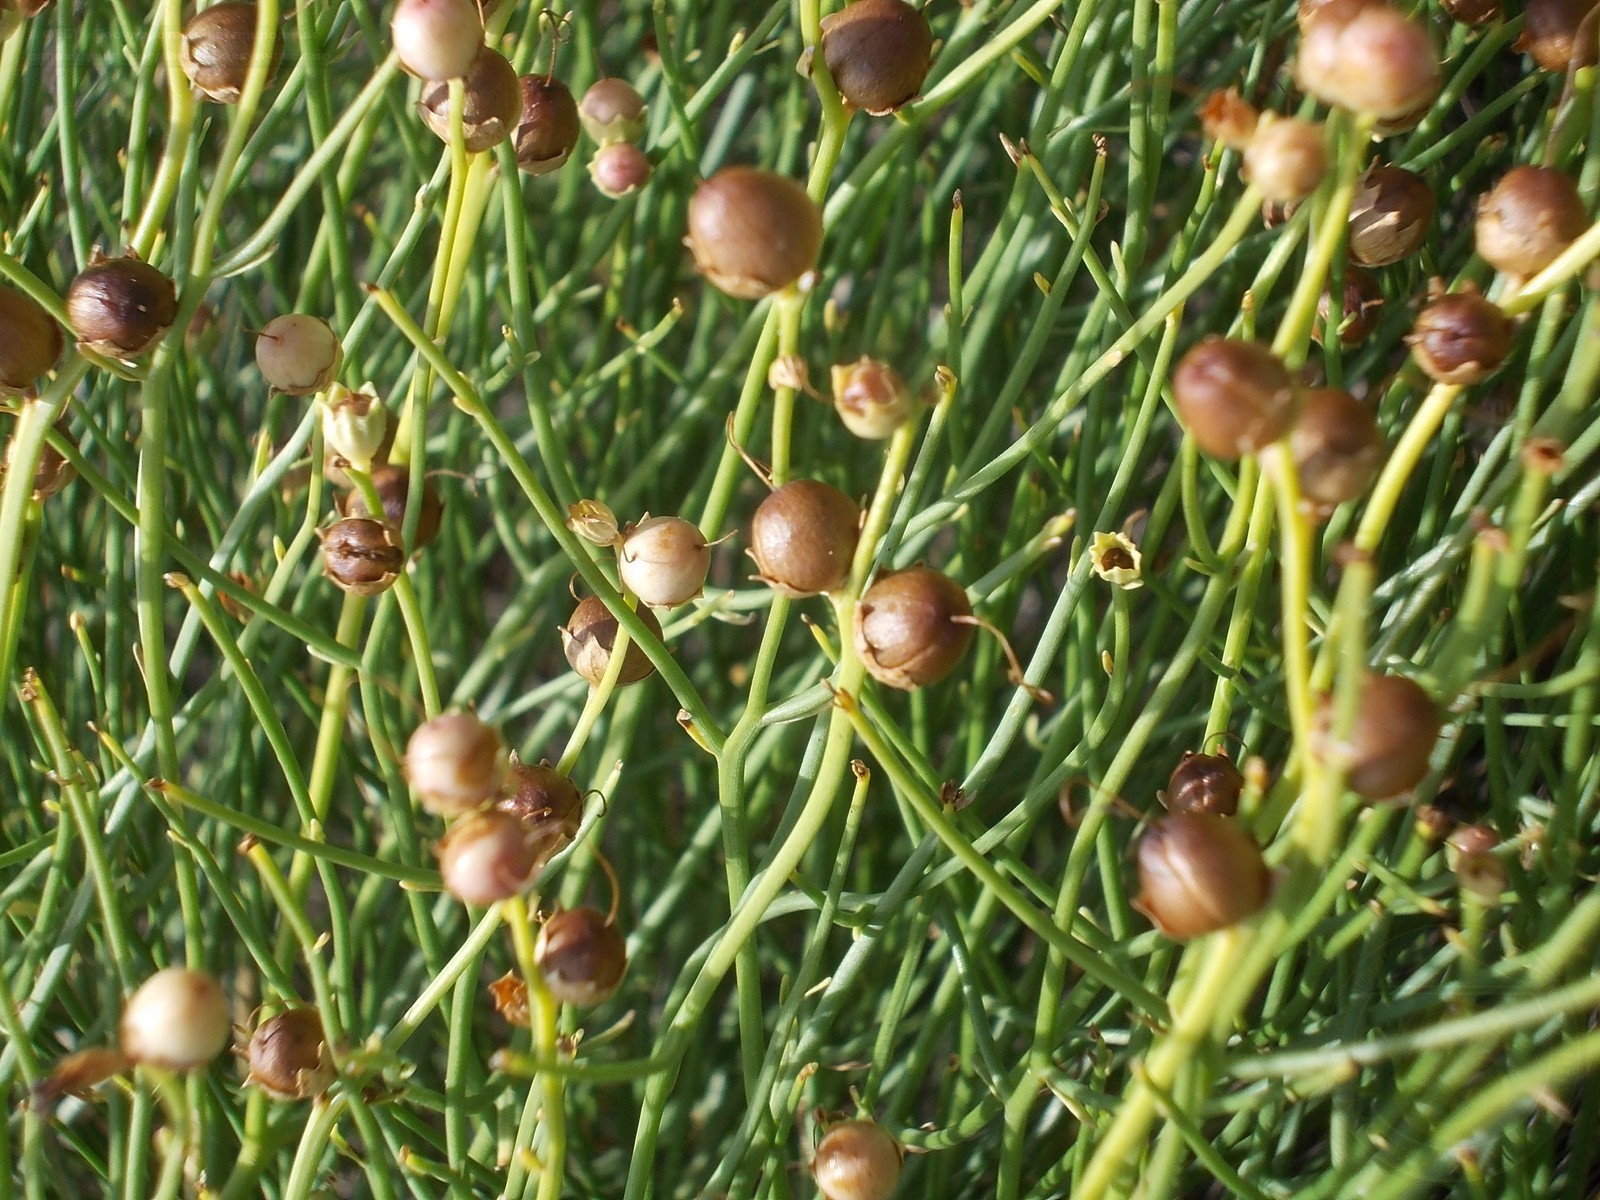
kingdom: Plantae
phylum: Tracheophyta
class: Magnoliopsida
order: Lamiales
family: Mazaceae
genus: Dodartia
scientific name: Dodartia orientalis
